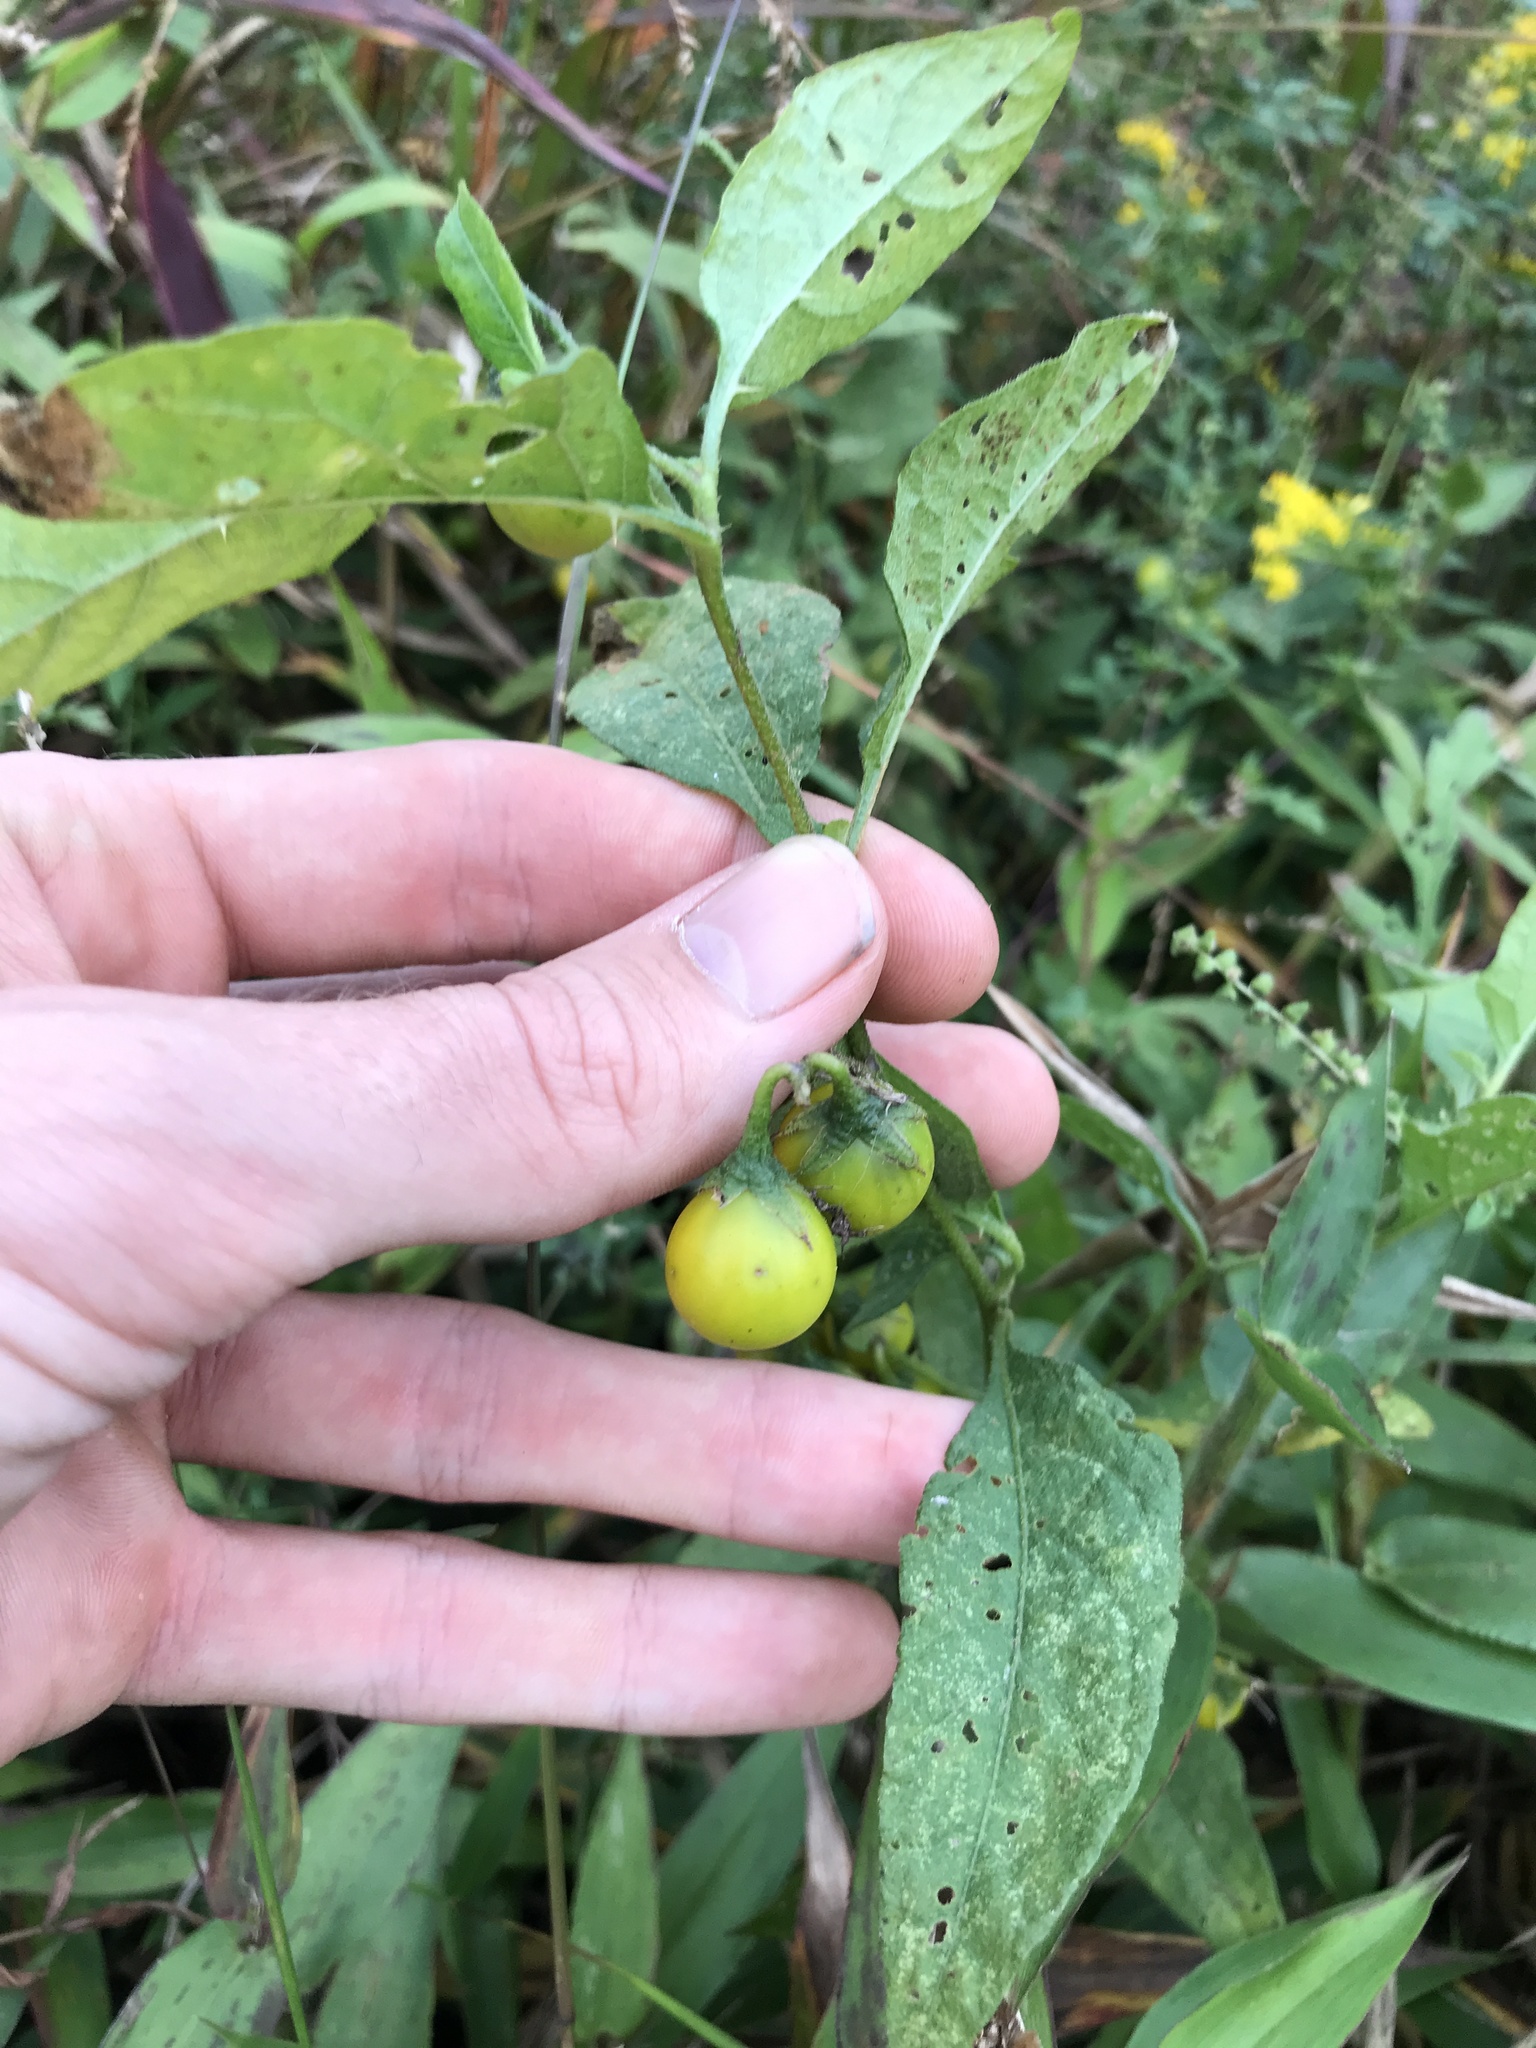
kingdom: Plantae
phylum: Tracheophyta
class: Magnoliopsida
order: Solanales
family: Solanaceae
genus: Solanum
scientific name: Solanum carolinense
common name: Horse-nettle
